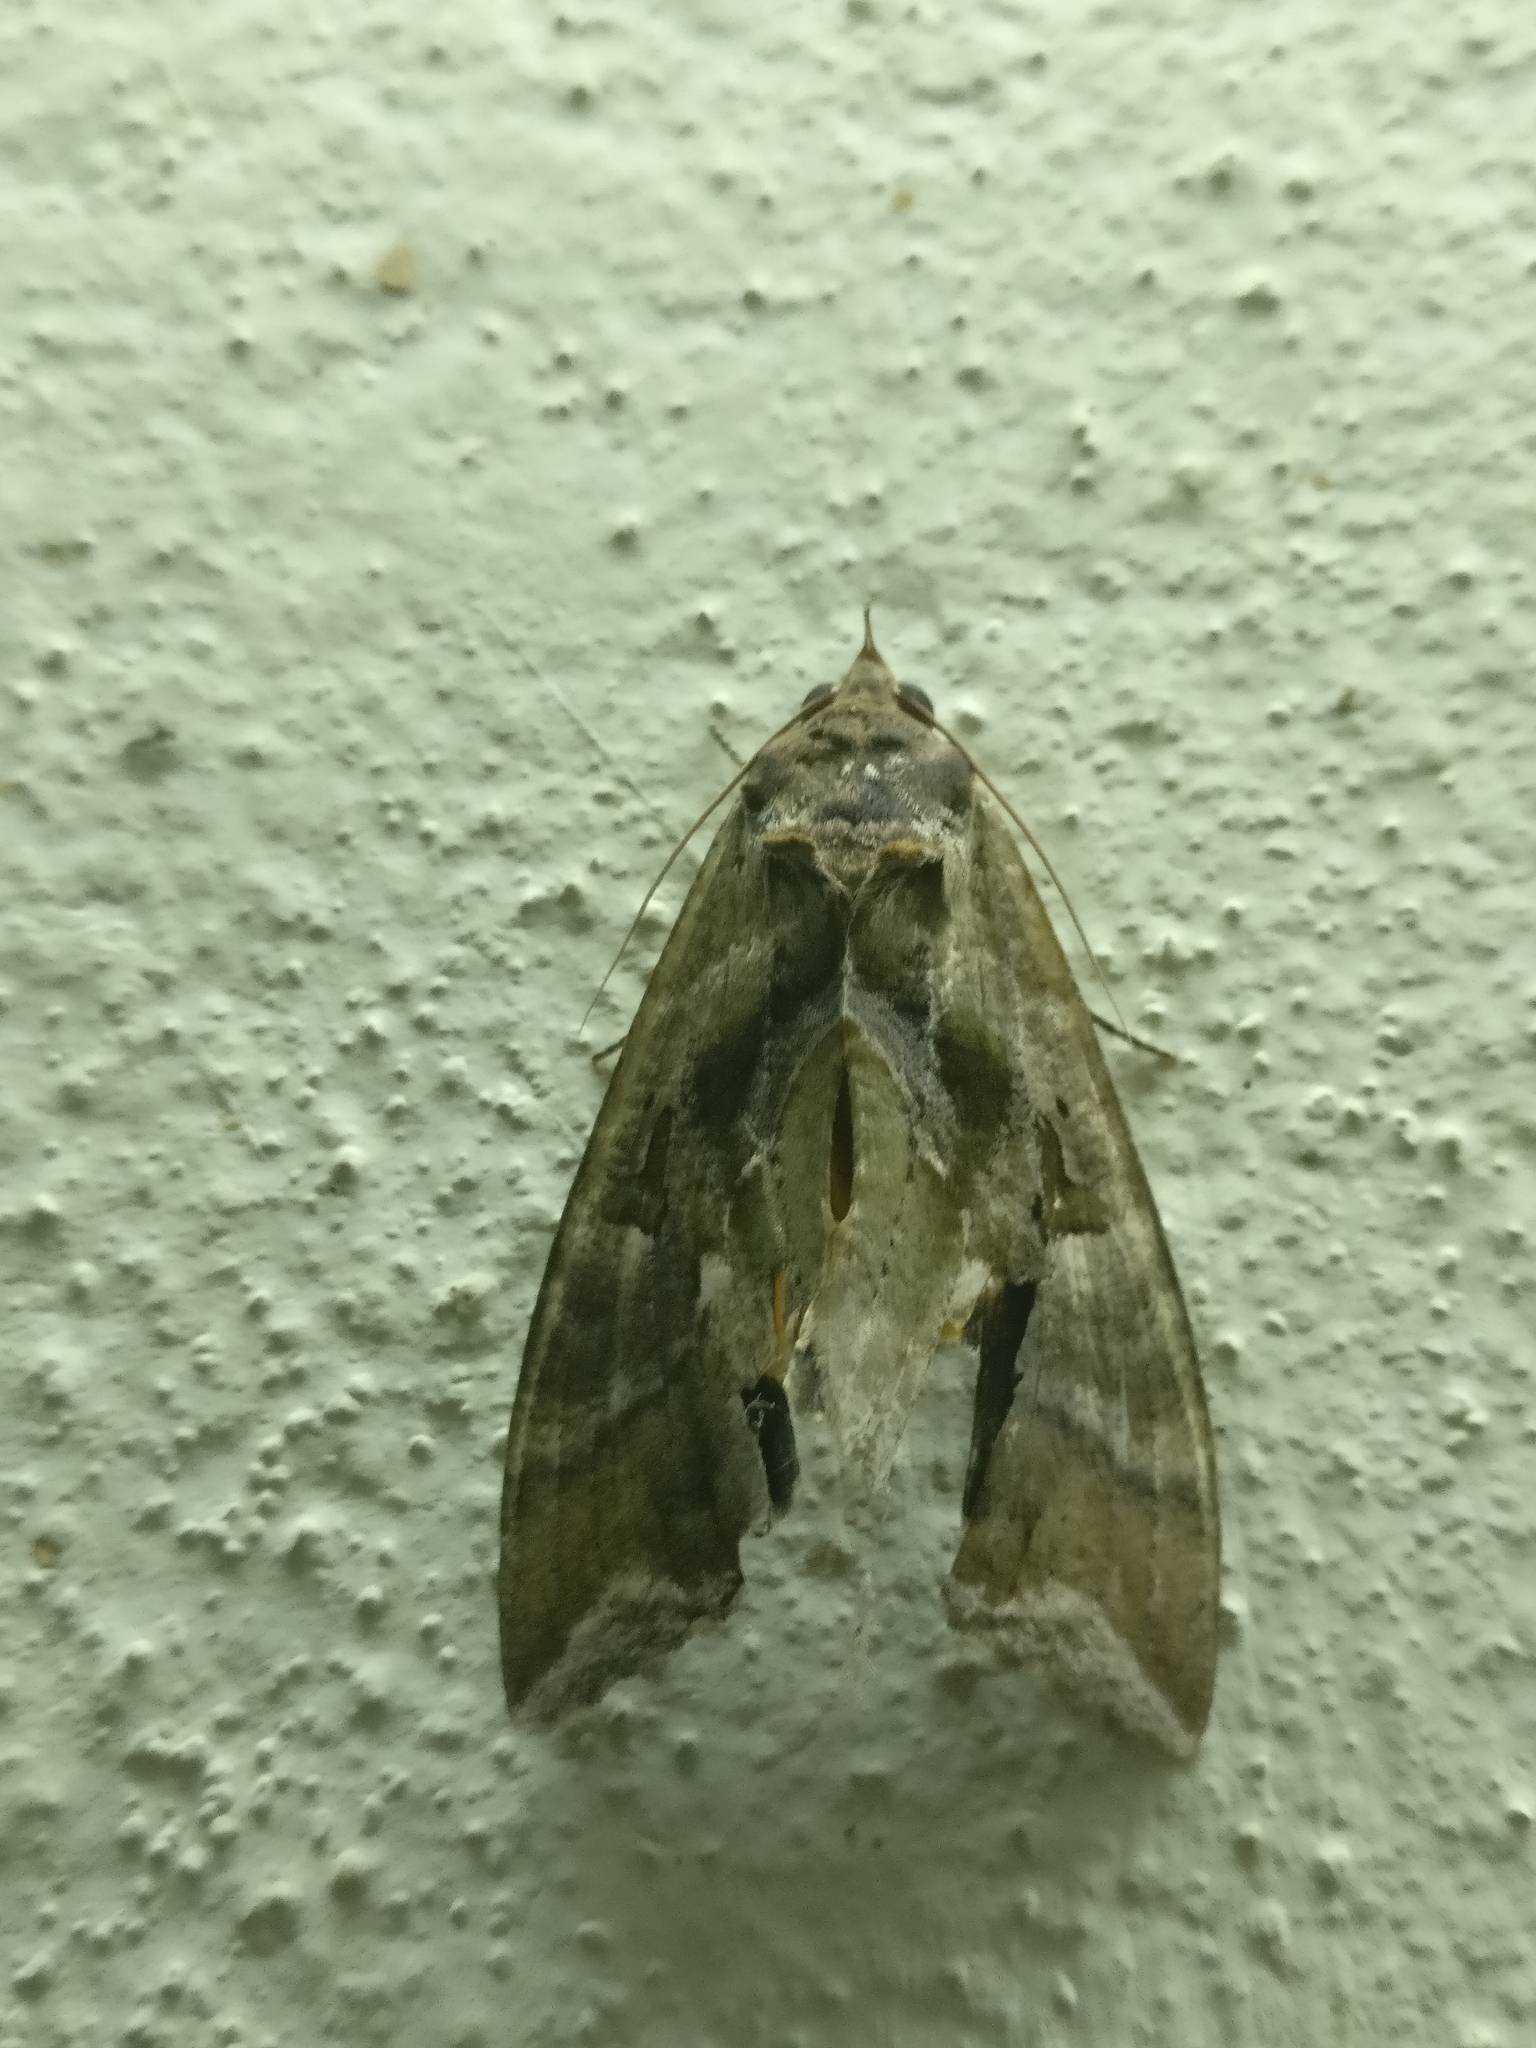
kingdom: Animalia
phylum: Arthropoda
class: Insecta
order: Lepidoptera
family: Erebidae
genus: Eudocima
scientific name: Eudocima phalonia
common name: Wasp
